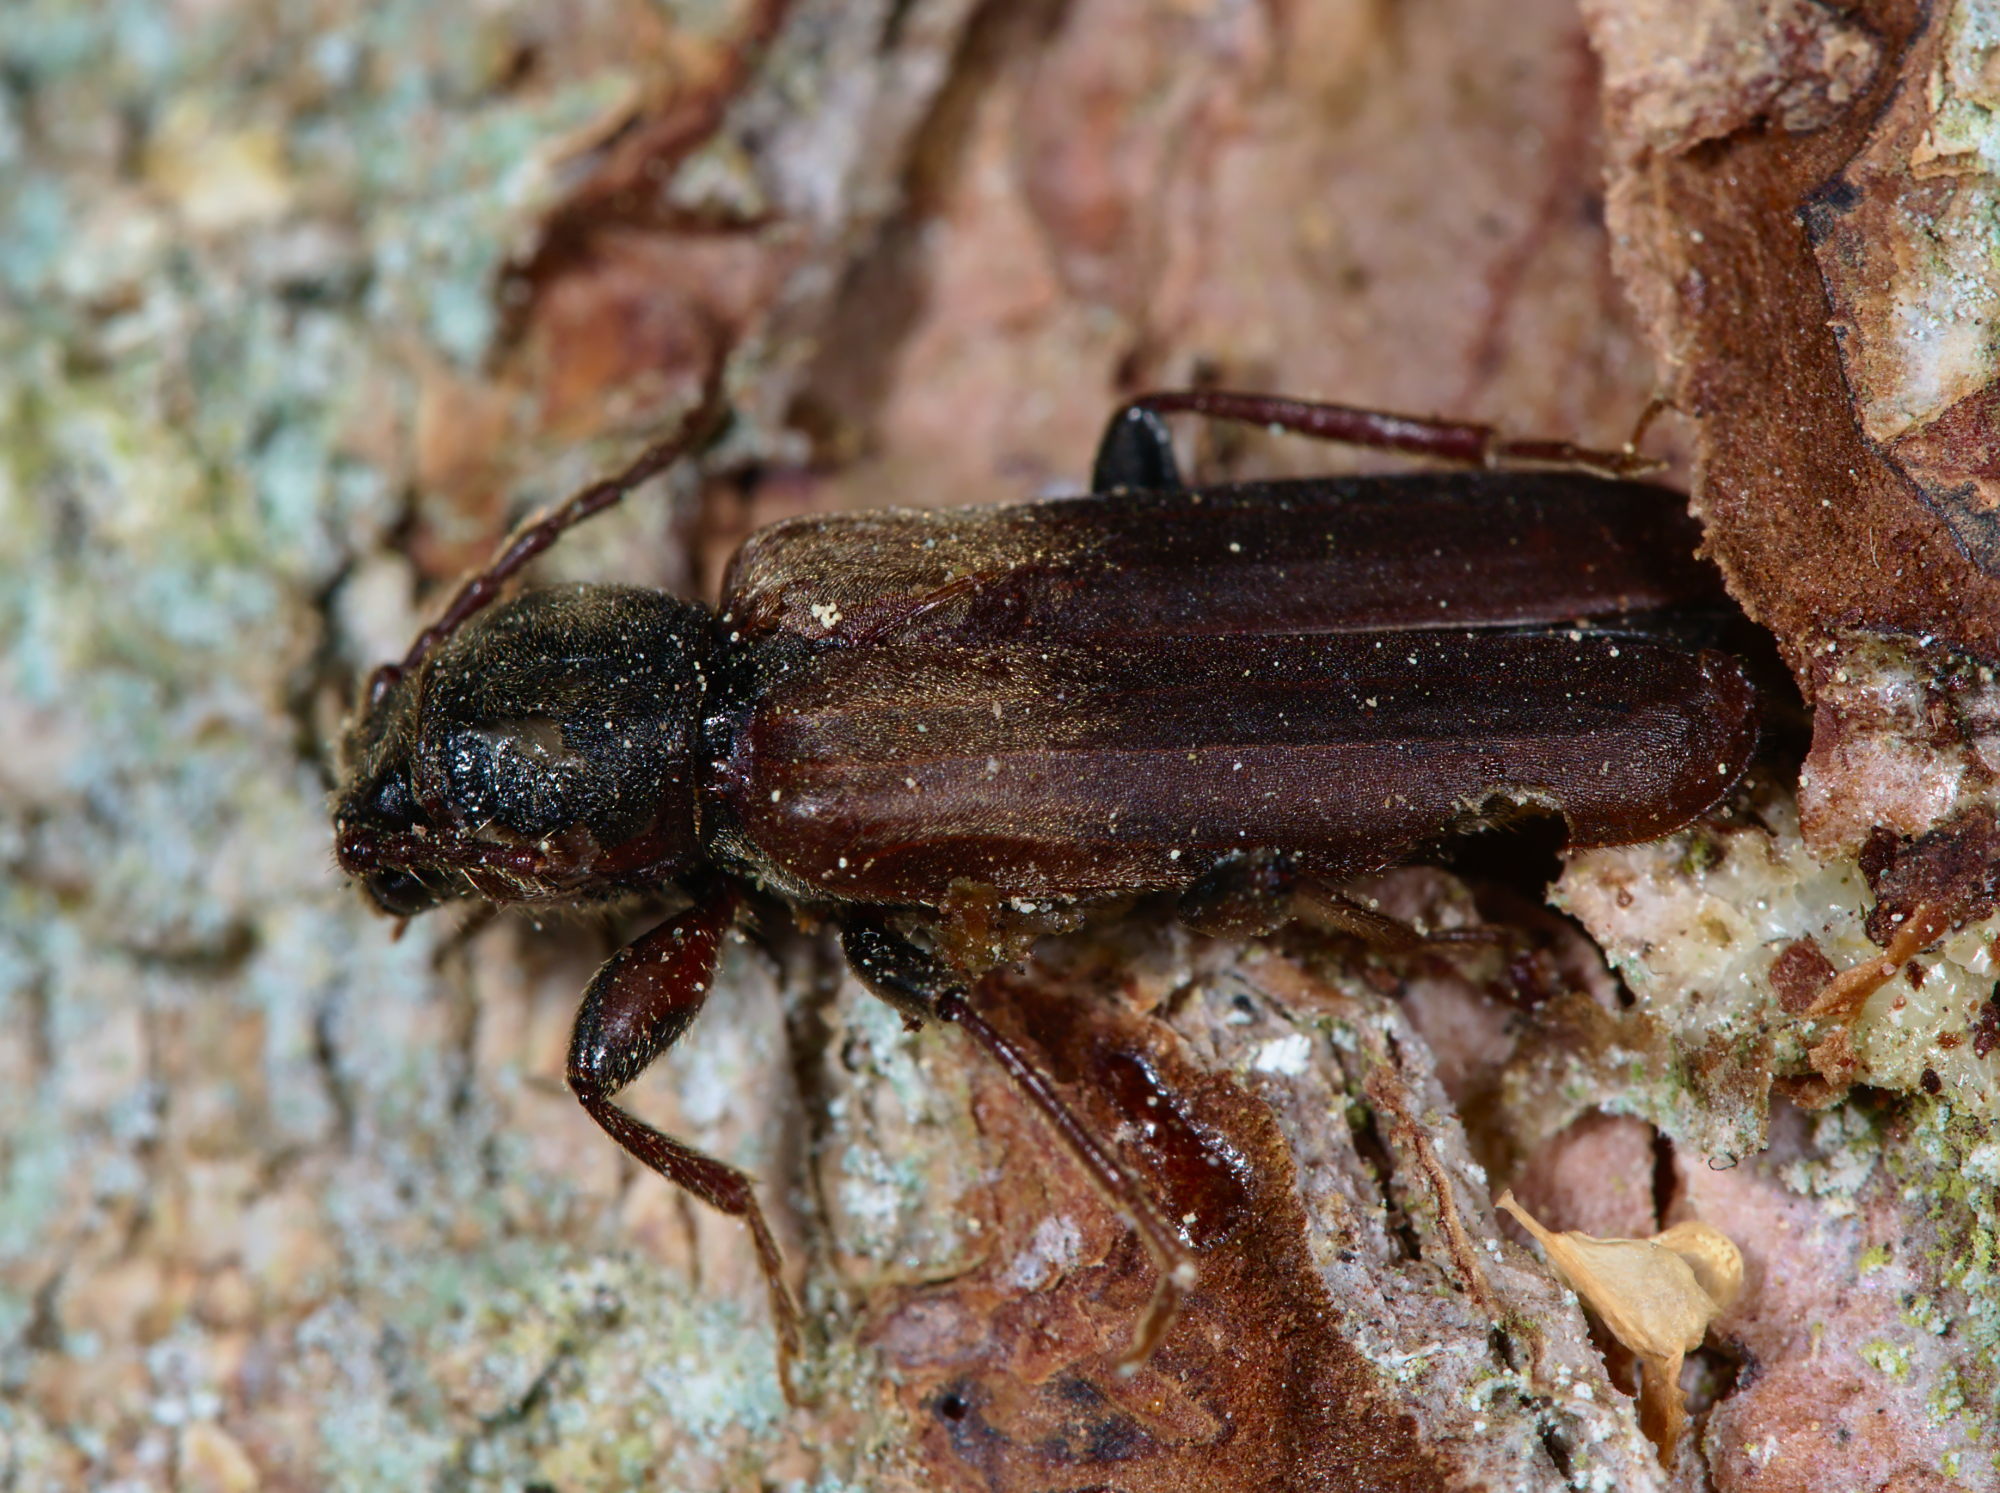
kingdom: Animalia
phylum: Arthropoda
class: Insecta
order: Coleoptera
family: Cerambycidae
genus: Tetropium
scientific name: Tetropium fuscum
